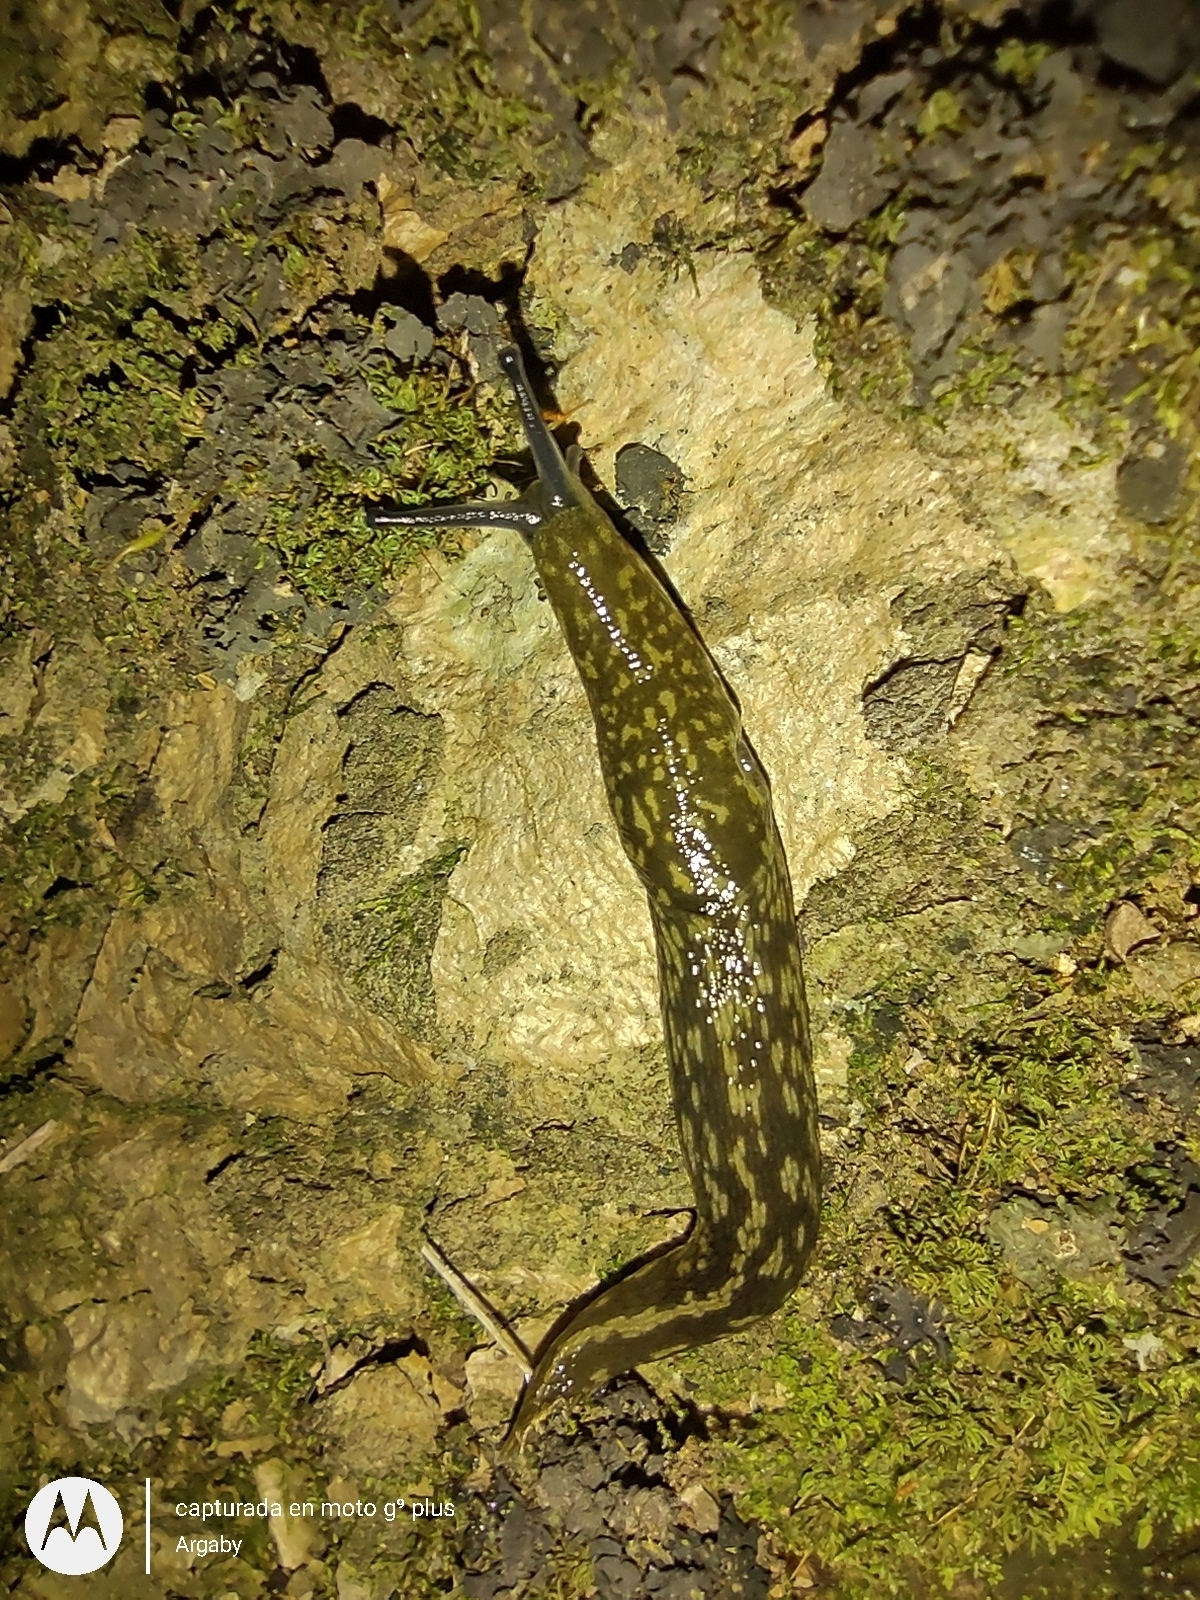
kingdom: Animalia
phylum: Mollusca
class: Gastropoda
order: Stylommatophora
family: Limacidae
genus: Limacus
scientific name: Limacus flavus
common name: Yellow gardenslug
